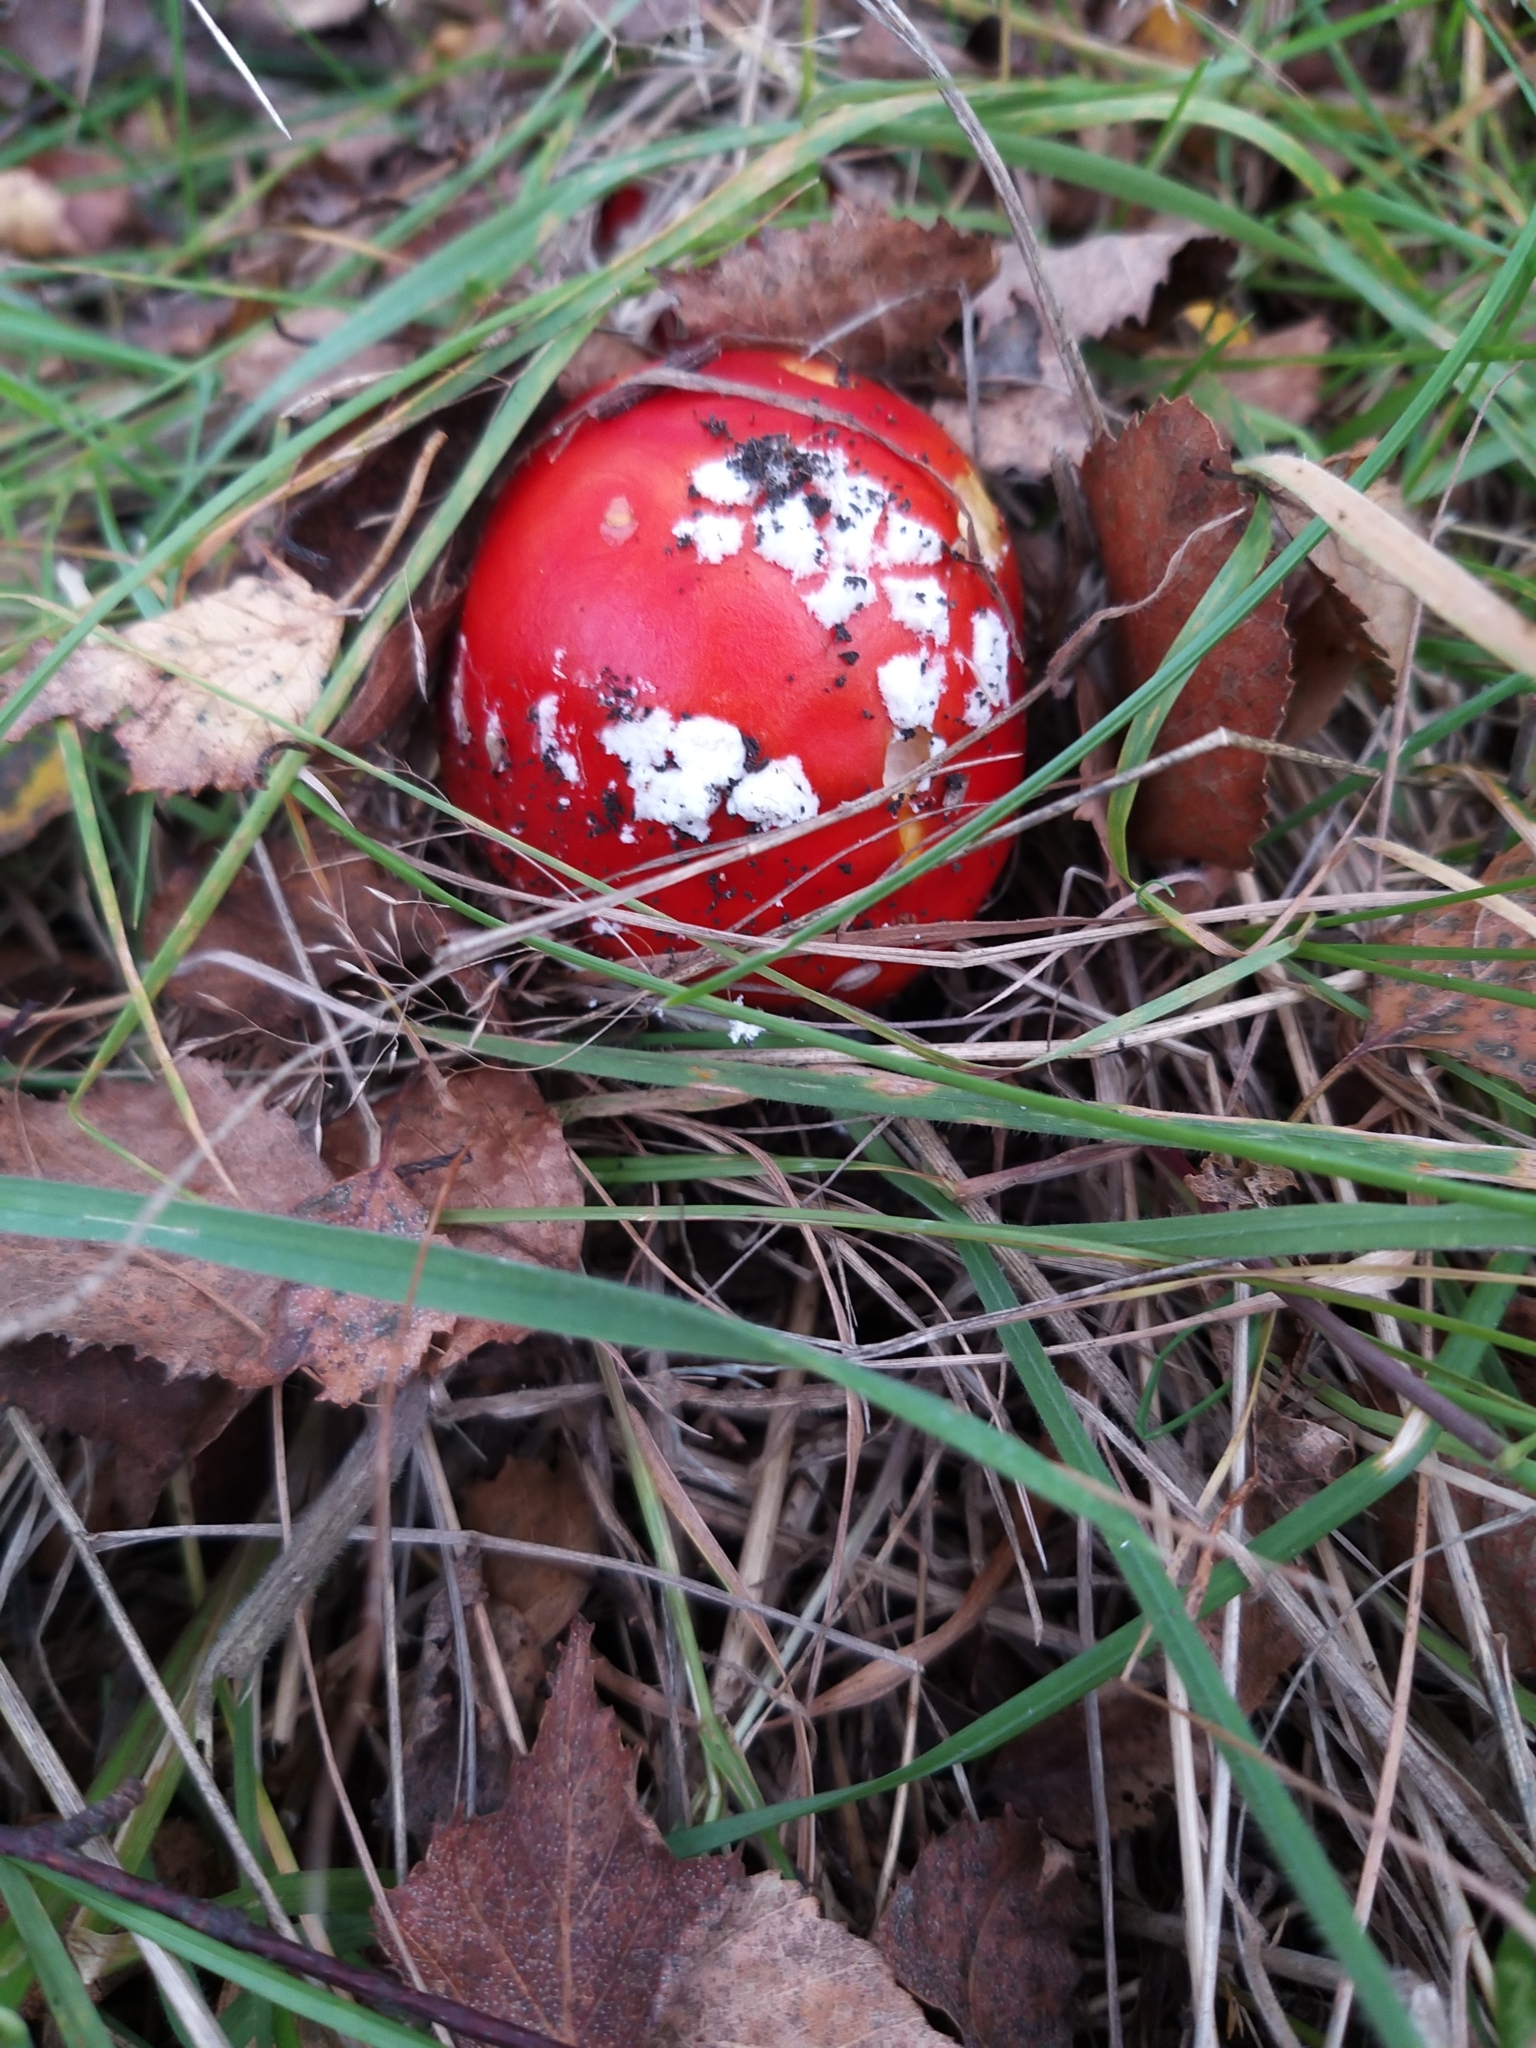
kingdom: Fungi
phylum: Basidiomycota
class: Agaricomycetes
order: Agaricales
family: Amanitaceae
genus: Amanita
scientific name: Amanita muscaria
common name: Fly agaric
